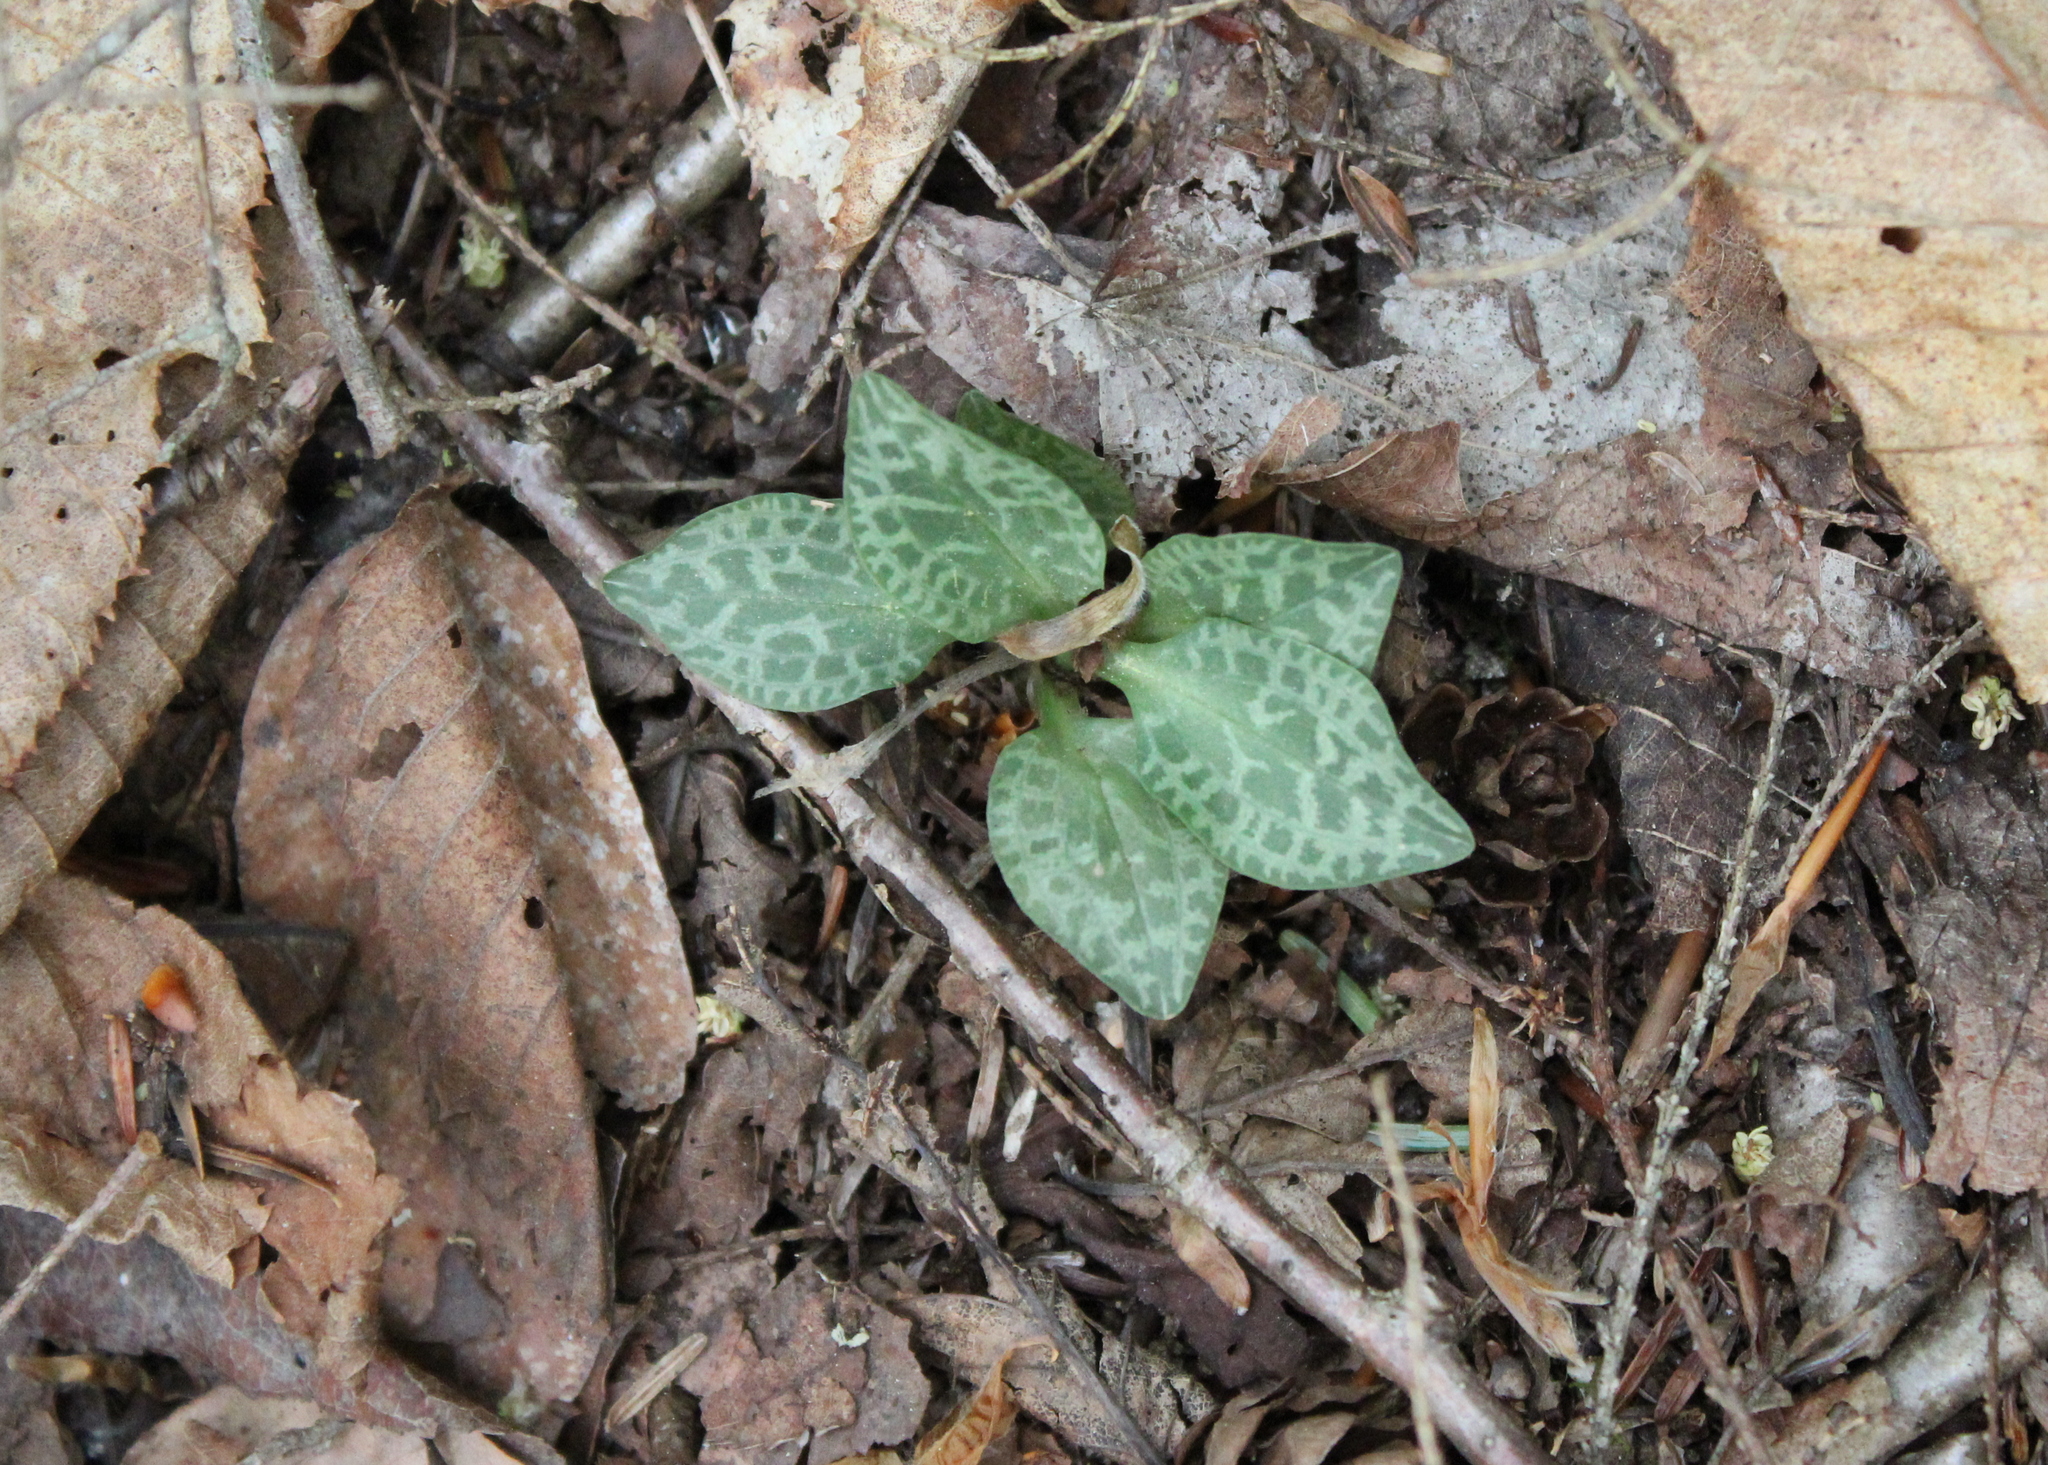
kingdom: Plantae
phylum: Tracheophyta
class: Liliopsida
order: Asparagales
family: Orchidaceae
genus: Goodyera
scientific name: Goodyera tesselata
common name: Checkered rattlesnake-plantain
